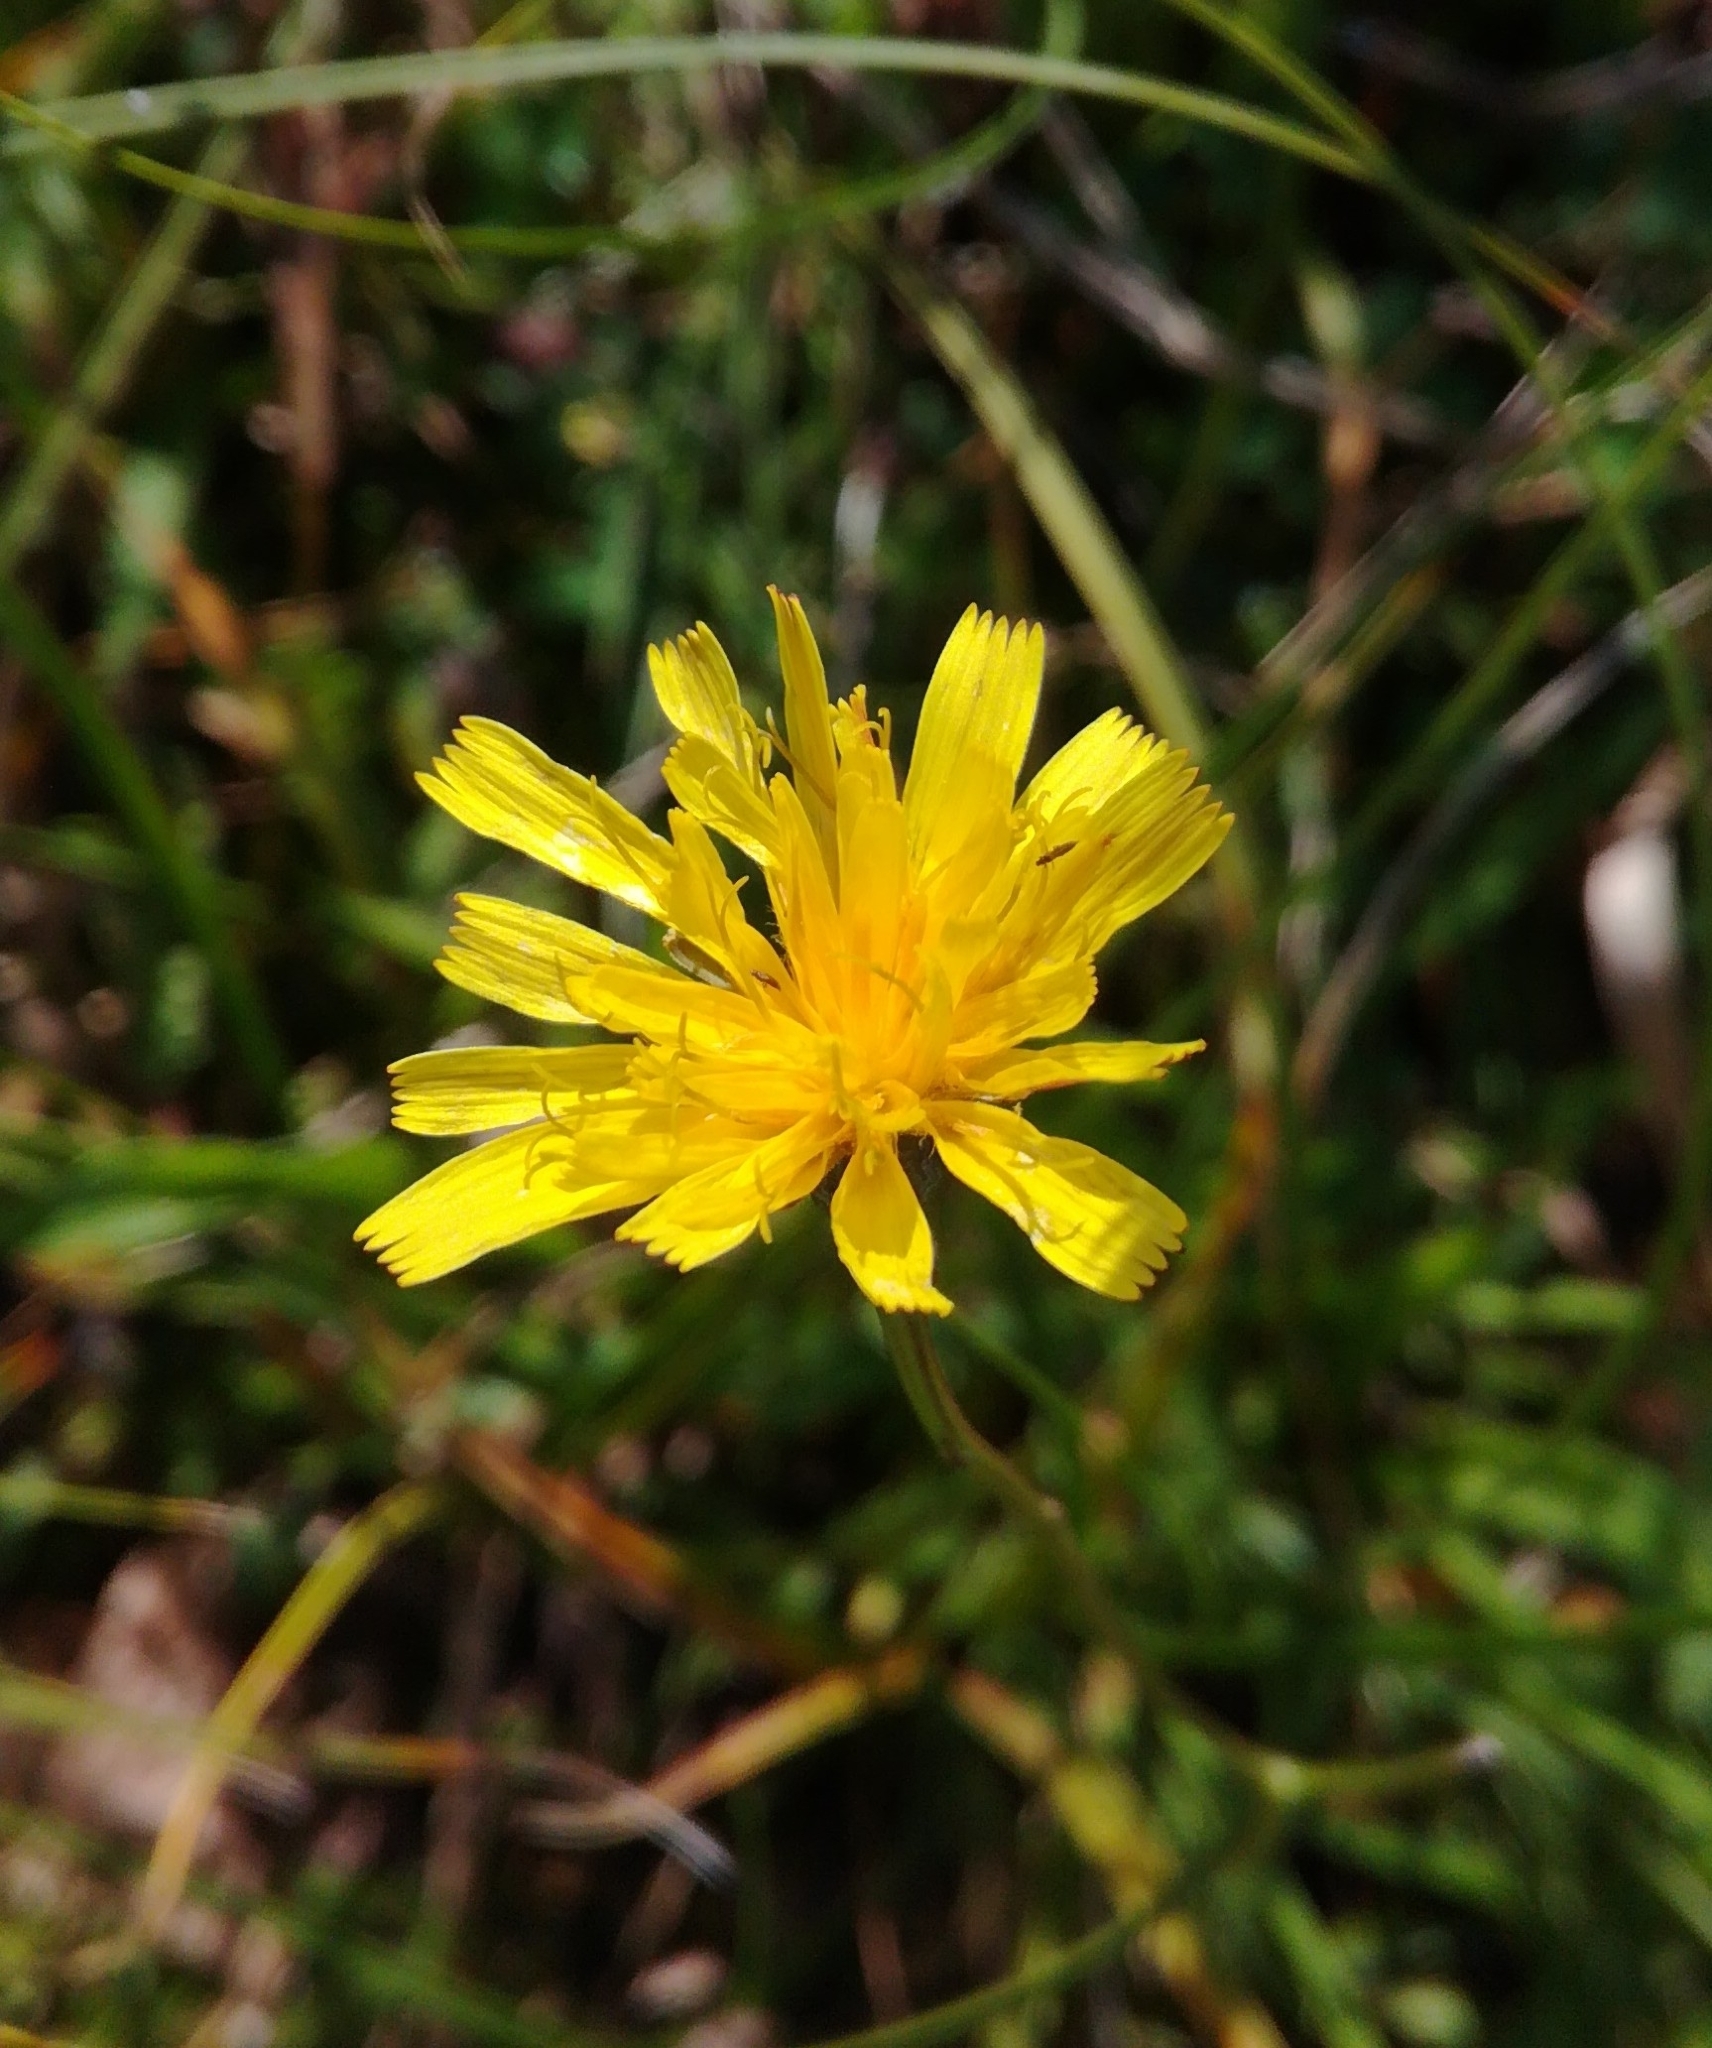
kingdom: Plantae
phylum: Tracheophyta
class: Magnoliopsida
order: Asterales
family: Asteraceae
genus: Crepis
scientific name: Crepis capillaris
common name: Smooth hawksbeard
